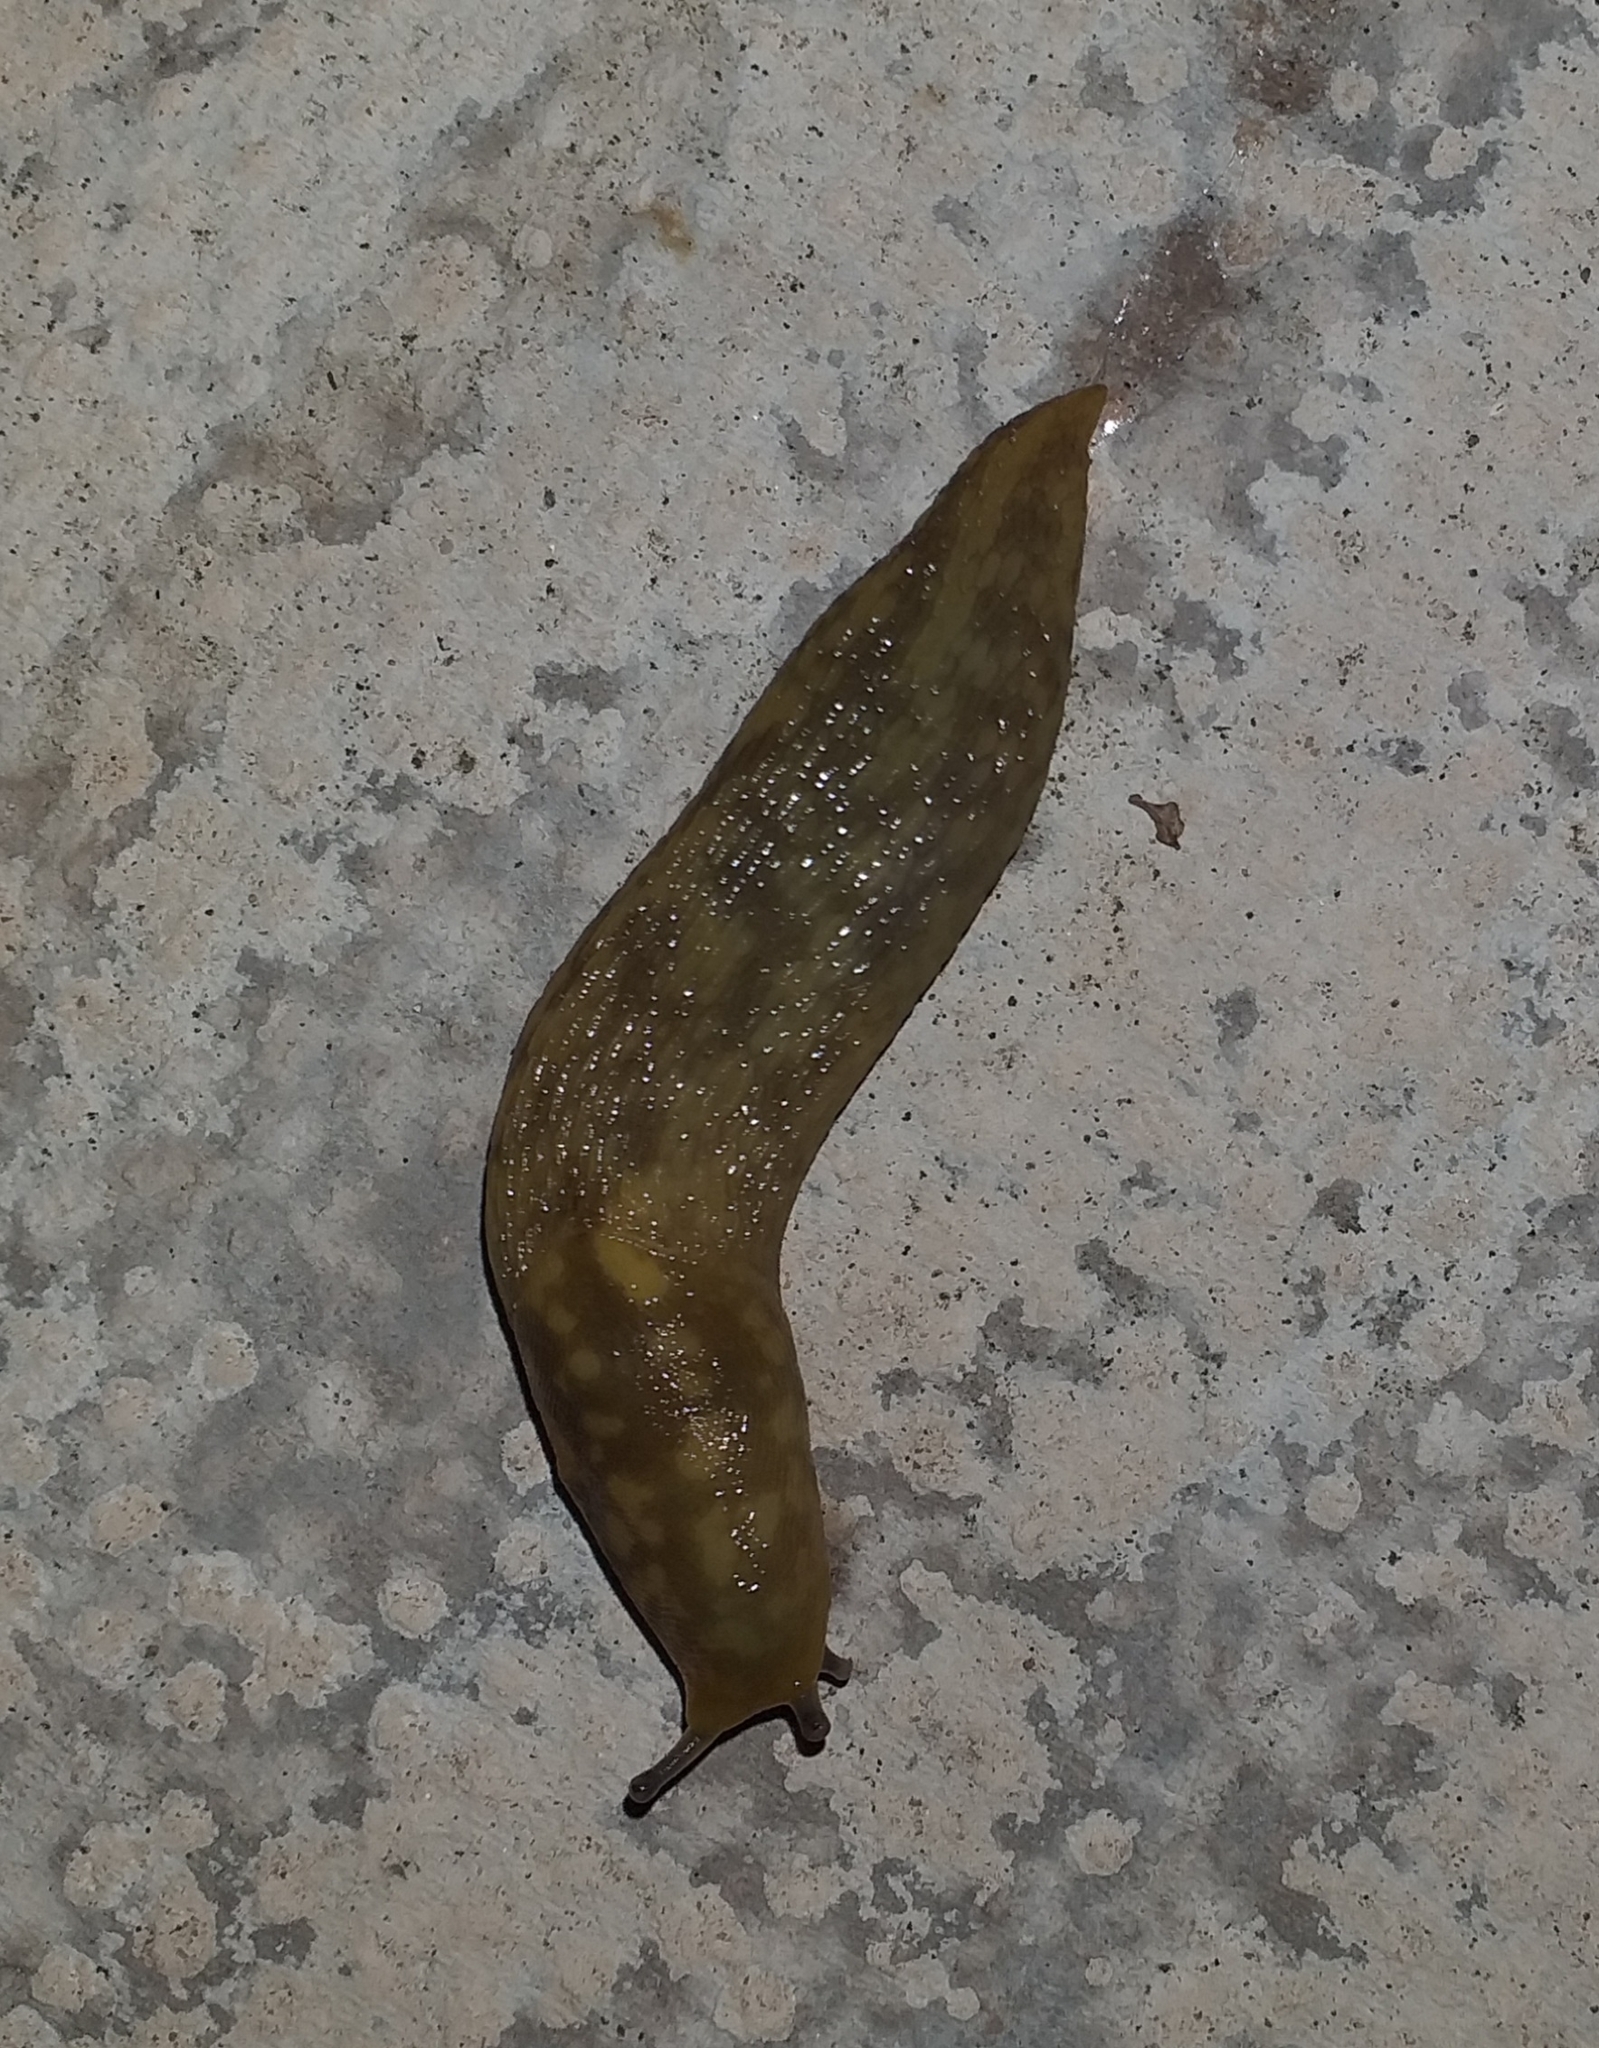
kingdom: Animalia
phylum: Mollusca
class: Gastropoda
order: Stylommatophora
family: Limacidae
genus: Limacus
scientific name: Limacus maculatus
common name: Irish yellow slug
